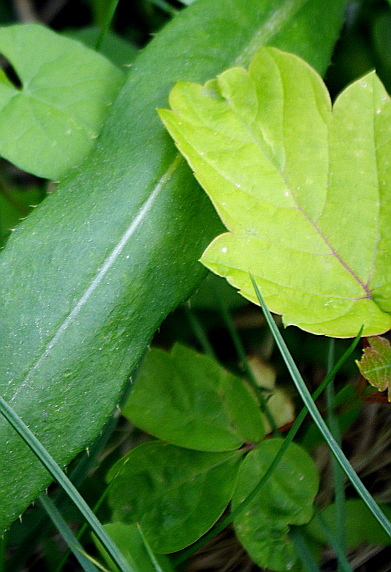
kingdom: Plantae
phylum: Tracheophyta
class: Magnoliopsida
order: Sapindales
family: Sapindaceae
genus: Acer
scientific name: Acer negundo
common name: Ashleaf maple
